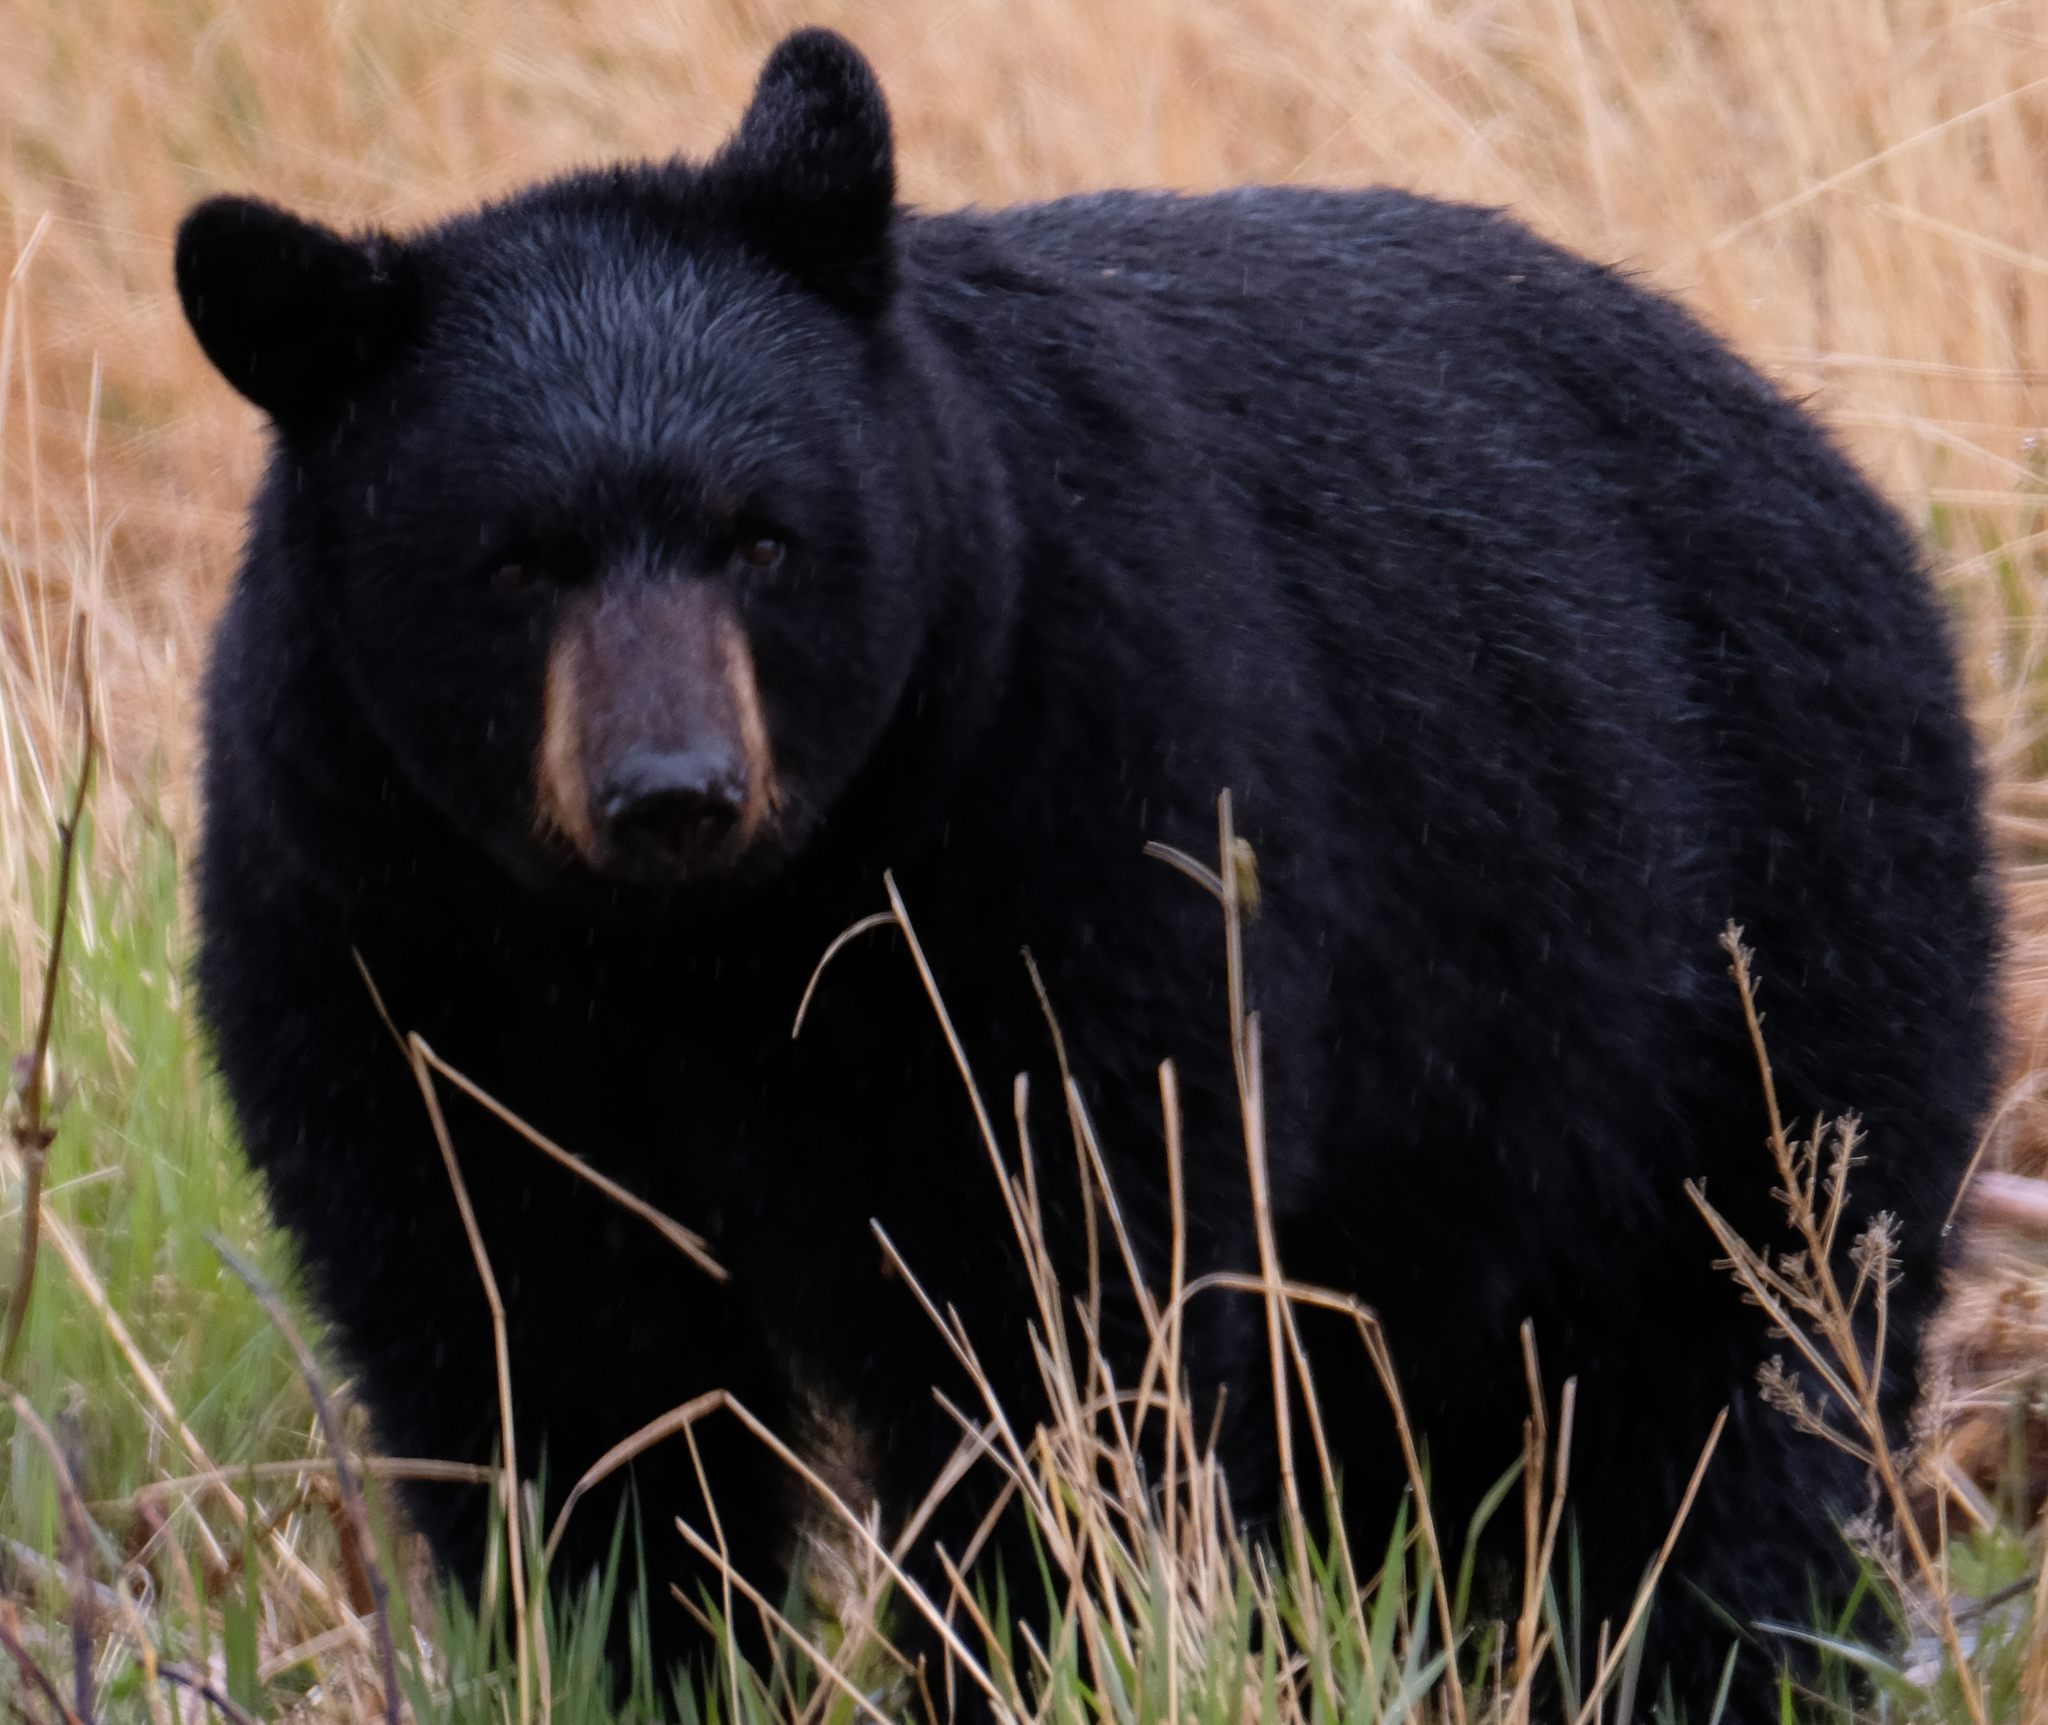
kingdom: Animalia
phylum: Chordata
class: Mammalia
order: Carnivora
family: Ursidae
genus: Ursus
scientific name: Ursus americanus
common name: American black bear
